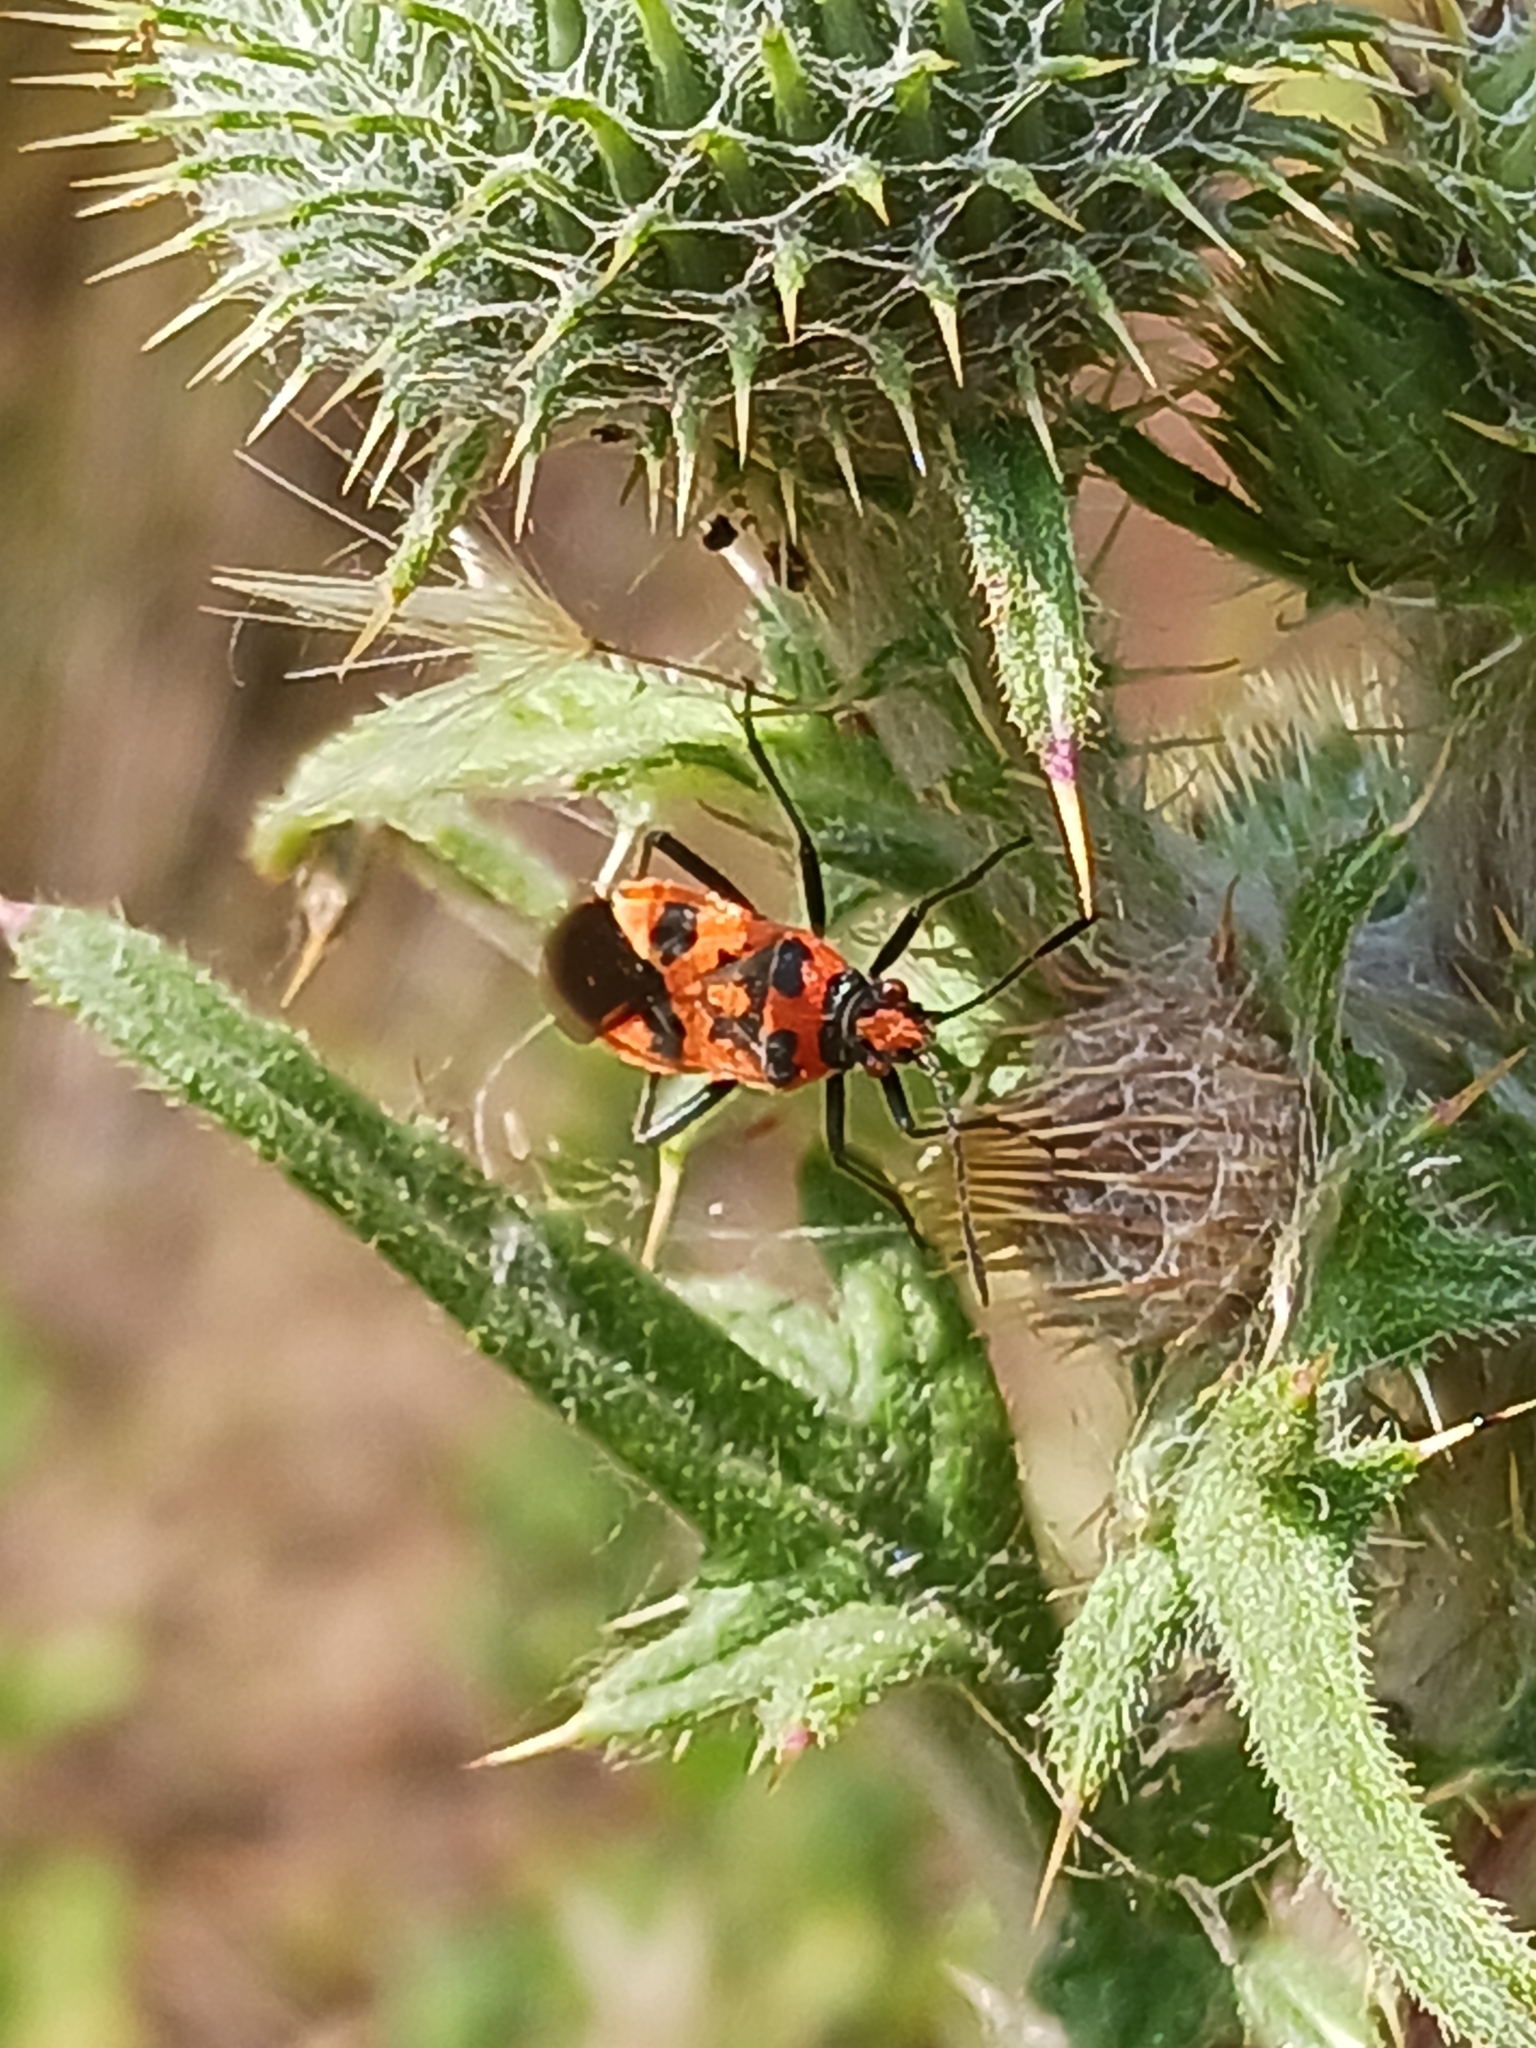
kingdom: Animalia
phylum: Arthropoda
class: Insecta
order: Hemiptera
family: Rhopalidae
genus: Corizus
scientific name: Corizus hyoscyami
